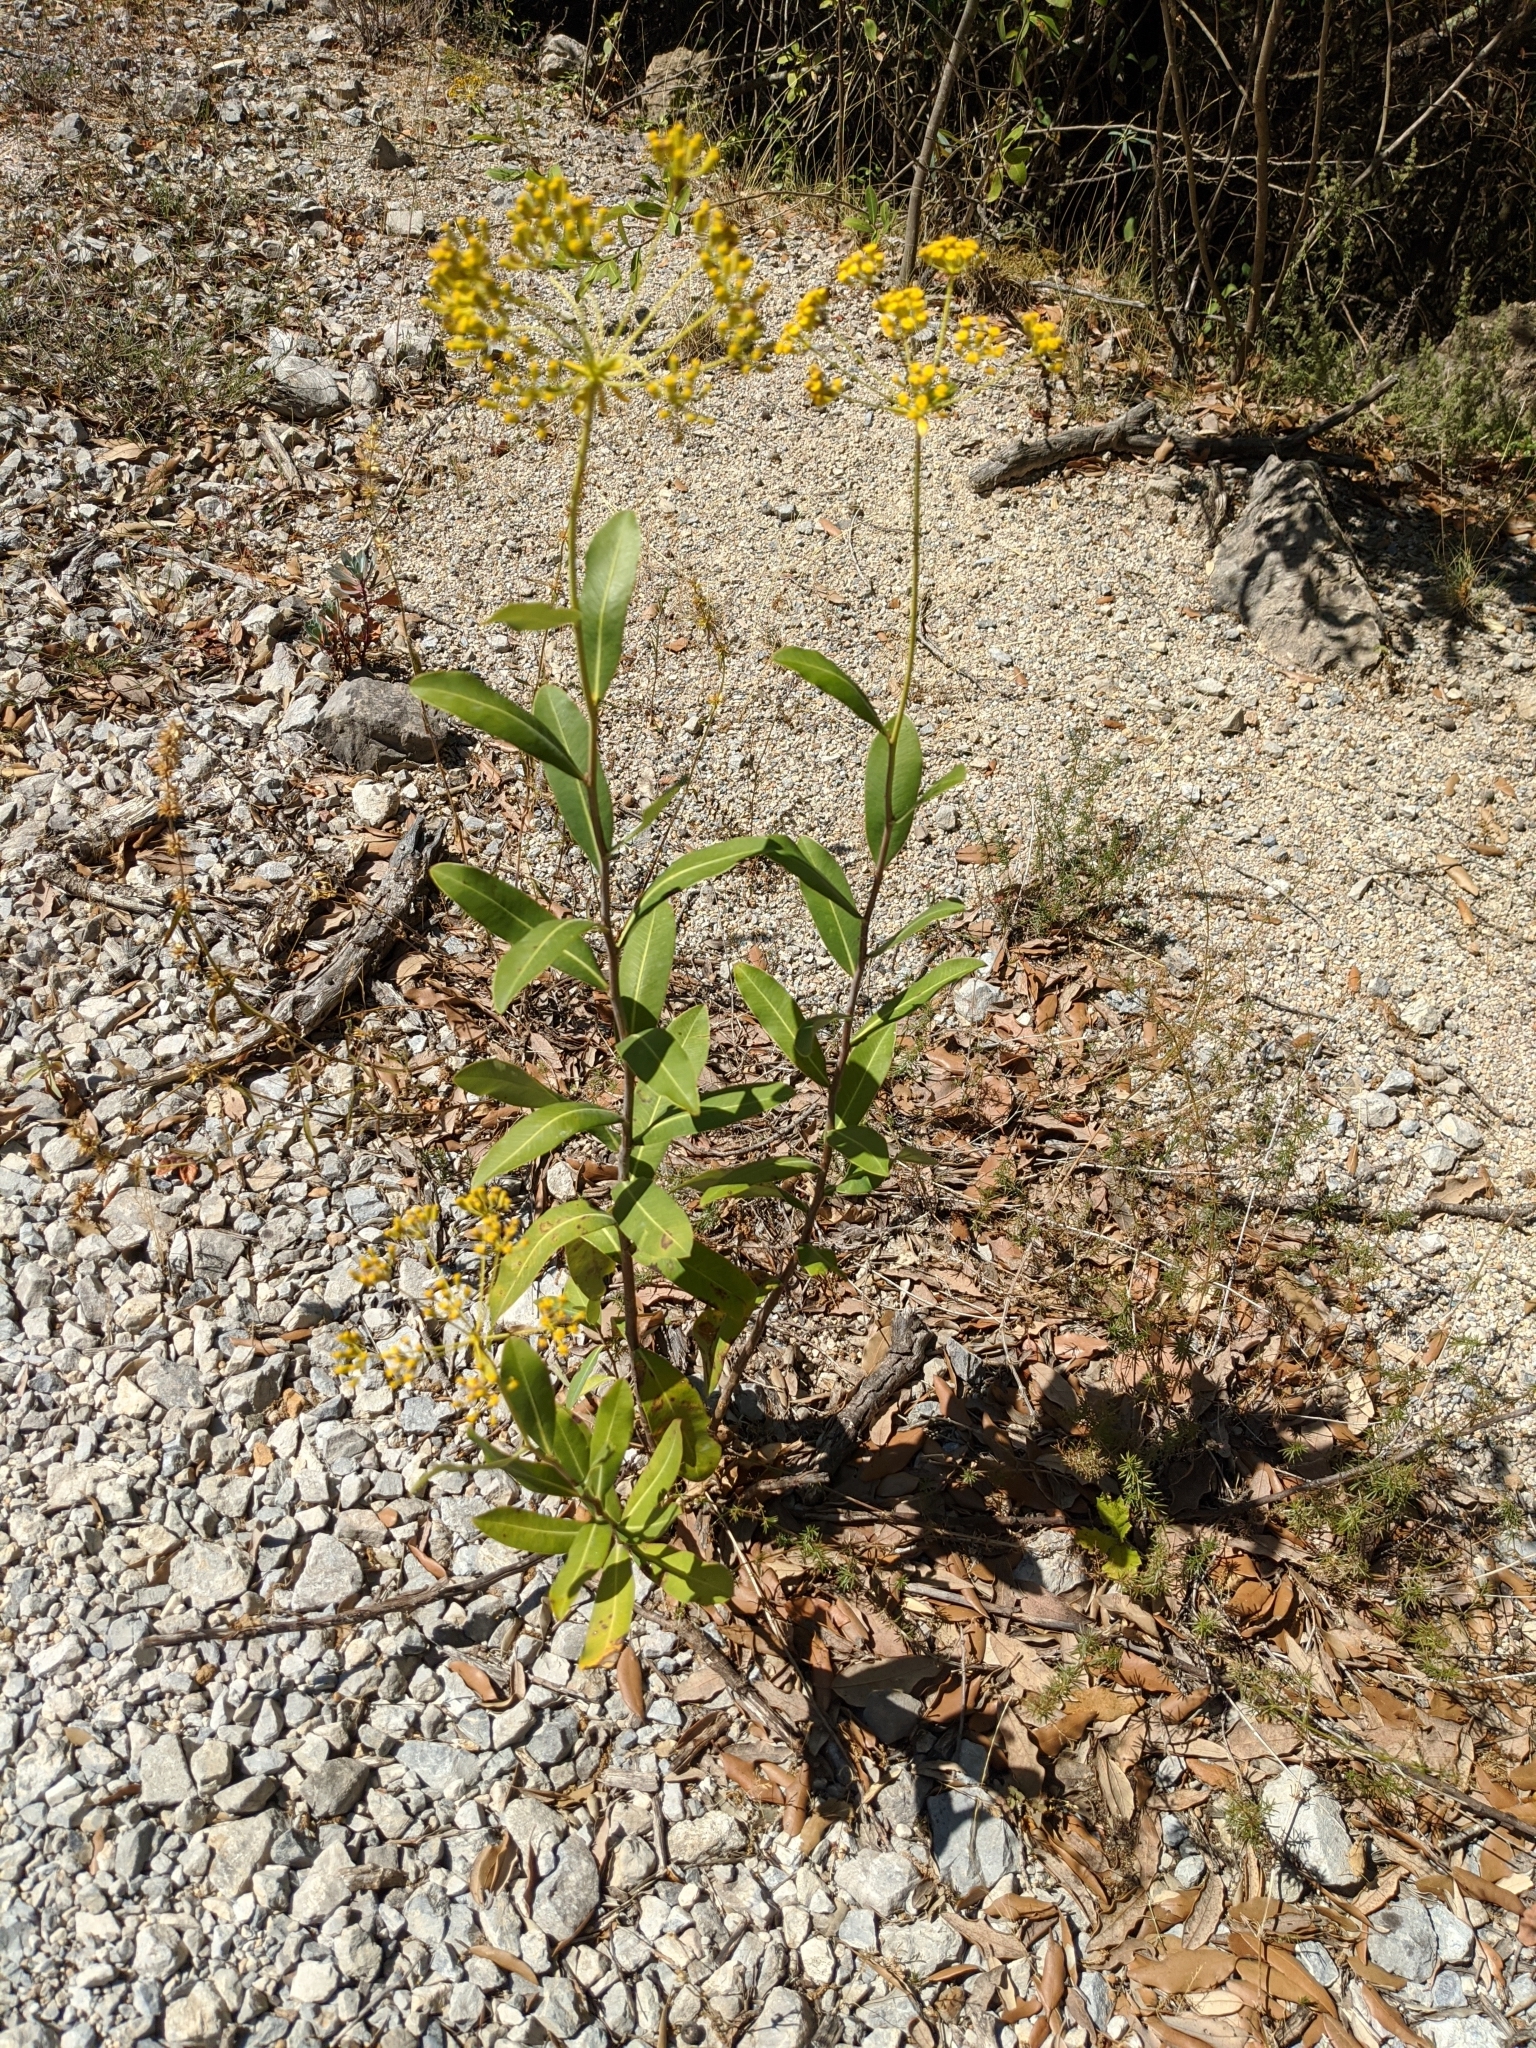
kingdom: Plantae
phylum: Tracheophyta
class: Magnoliopsida
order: Apiales
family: Apiaceae
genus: Bupleurum
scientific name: Bupleurum fruticosum
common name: Shrubby hare's-ear
